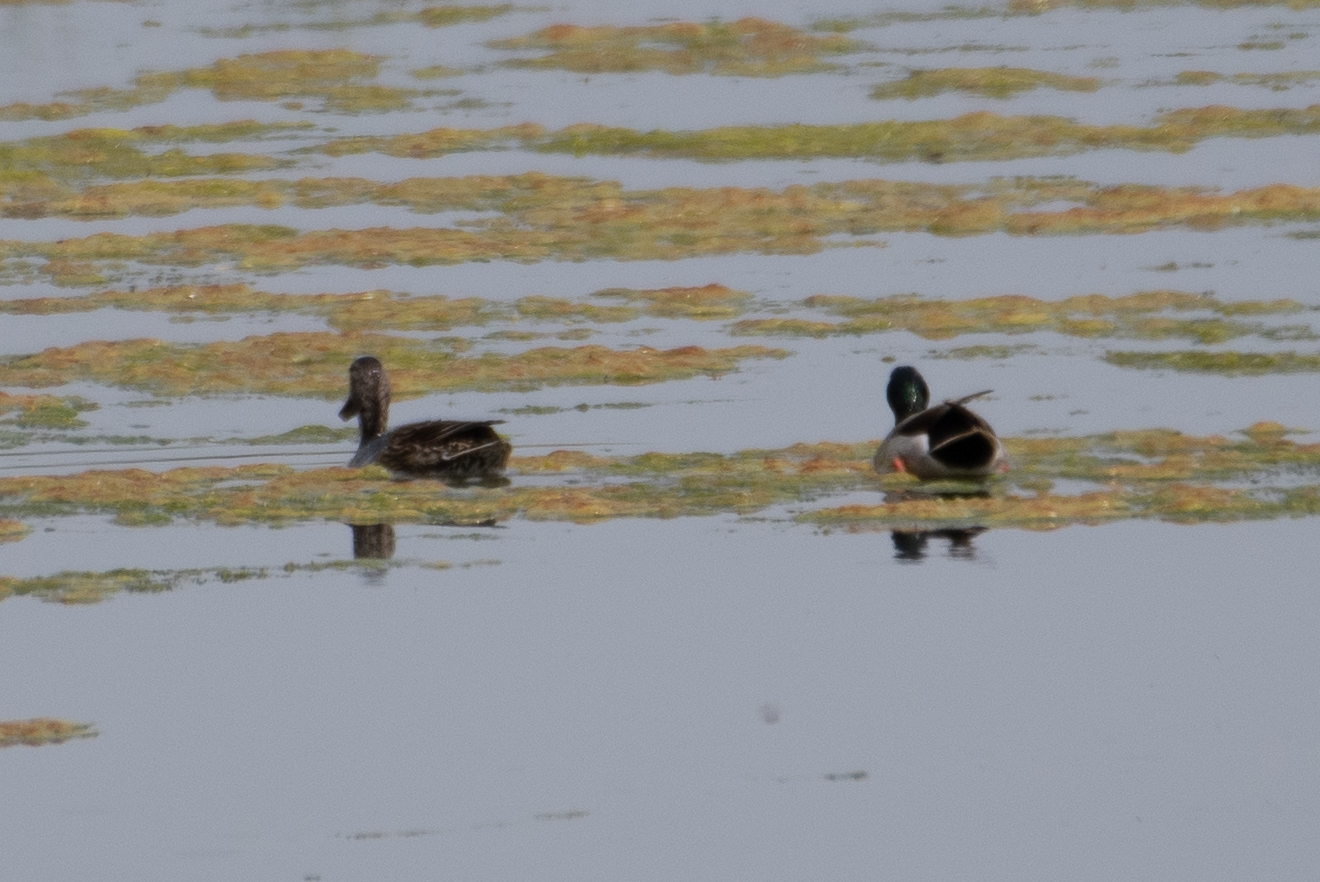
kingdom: Animalia
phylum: Chordata
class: Aves
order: Anseriformes
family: Anatidae
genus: Anas
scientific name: Anas platyrhynchos
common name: Mallard
